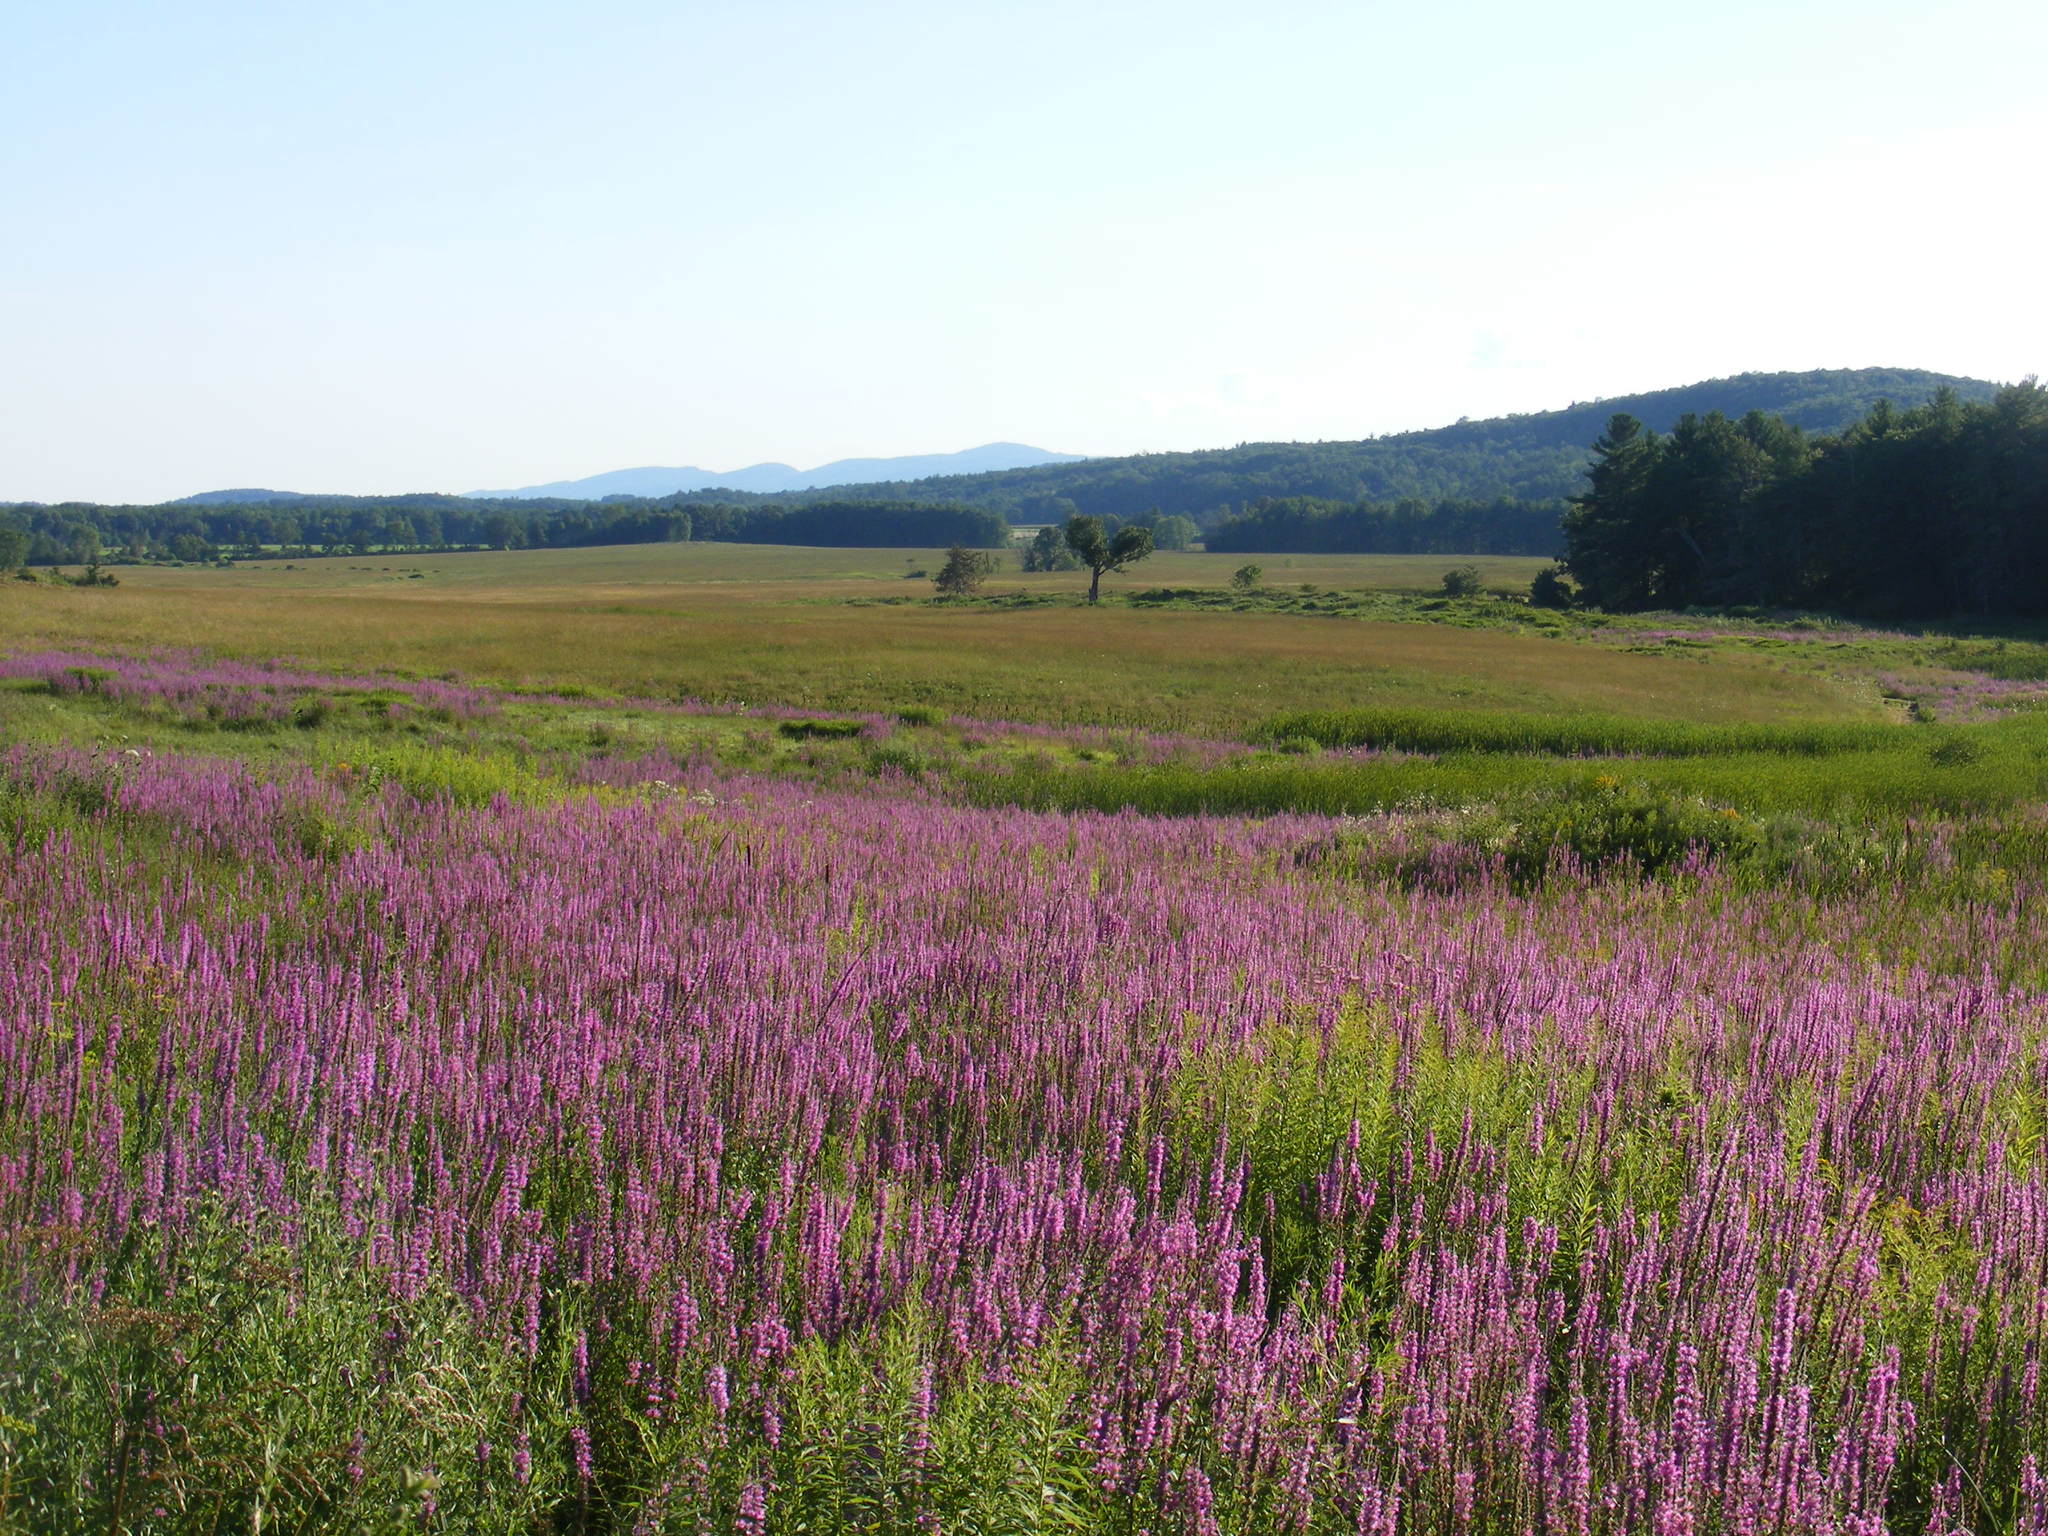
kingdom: Plantae
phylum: Tracheophyta
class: Magnoliopsida
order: Myrtales
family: Lythraceae
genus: Lythrum
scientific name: Lythrum salicaria
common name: Purple loosestrife
